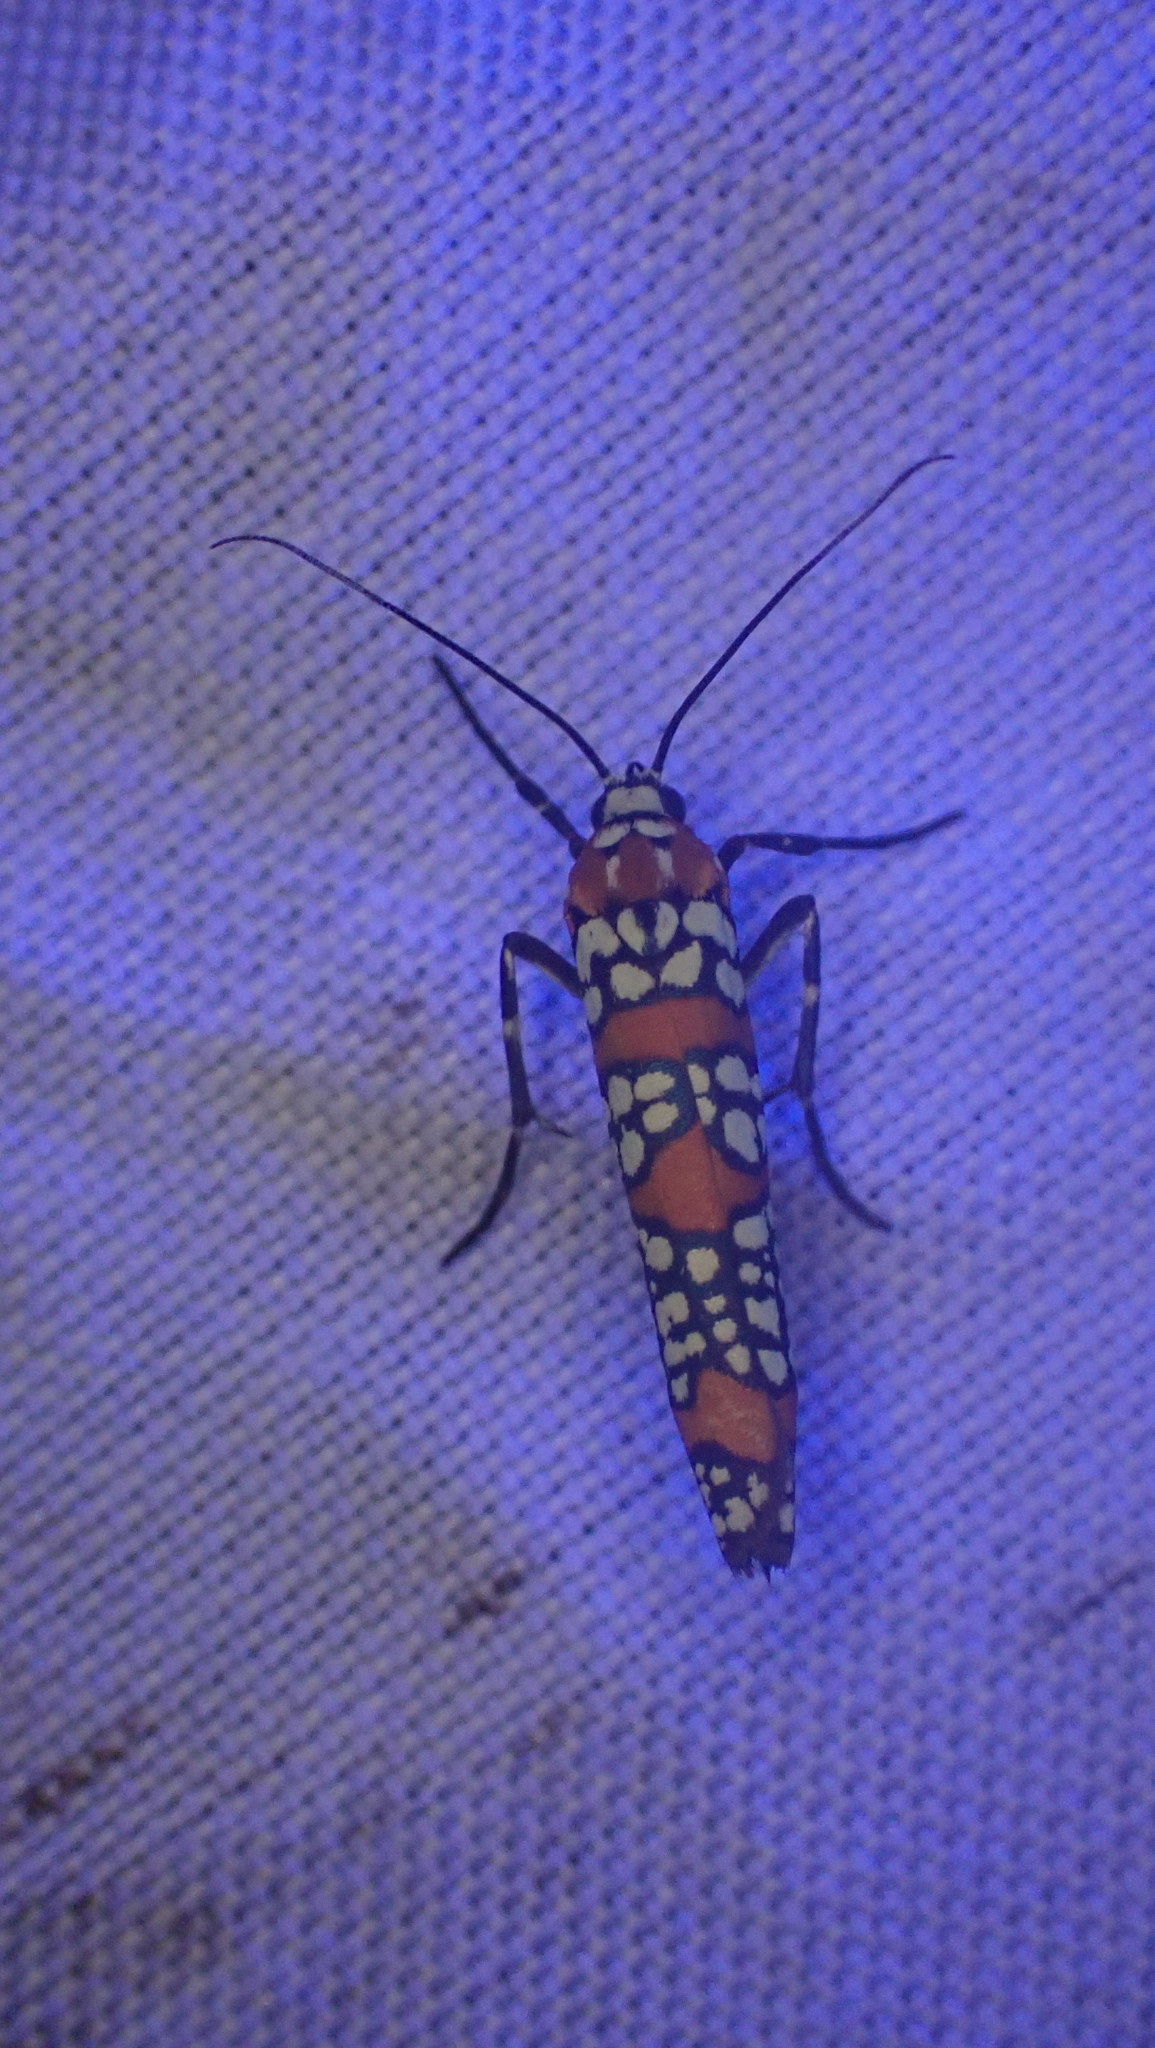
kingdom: Animalia
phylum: Arthropoda
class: Insecta
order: Lepidoptera
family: Attevidae
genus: Atteva
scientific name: Atteva punctella
